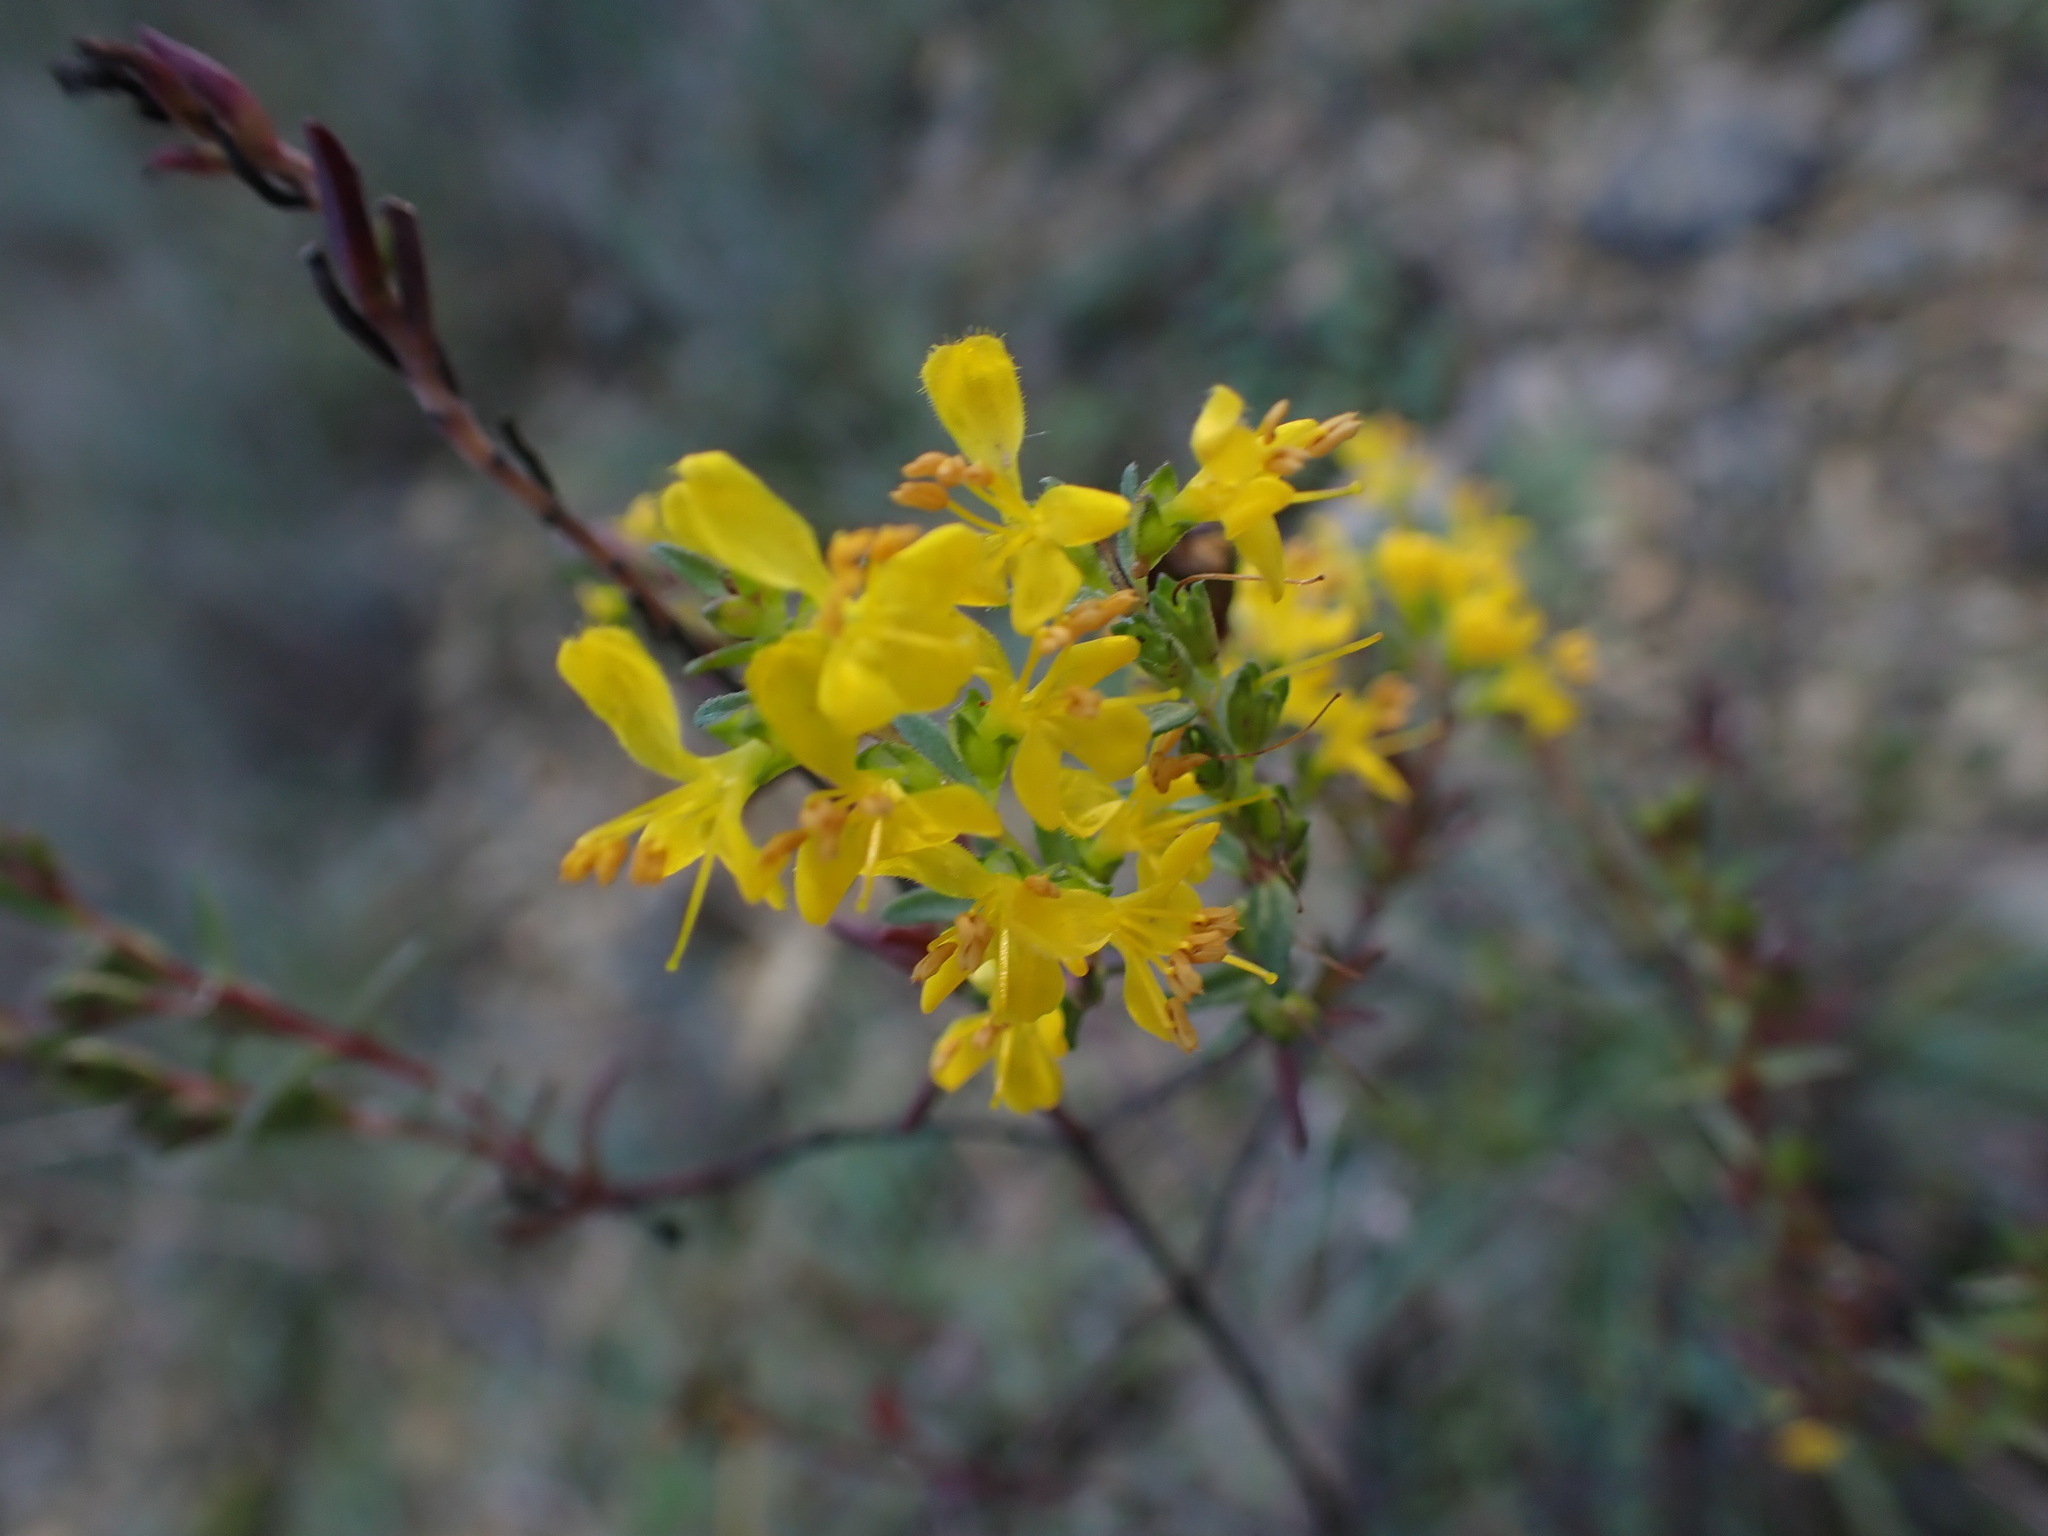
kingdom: Plantae
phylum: Tracheophyta
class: Magnoliopsida
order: Lamiales
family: Orobanchaceae
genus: Odontites
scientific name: Odontites luteus
